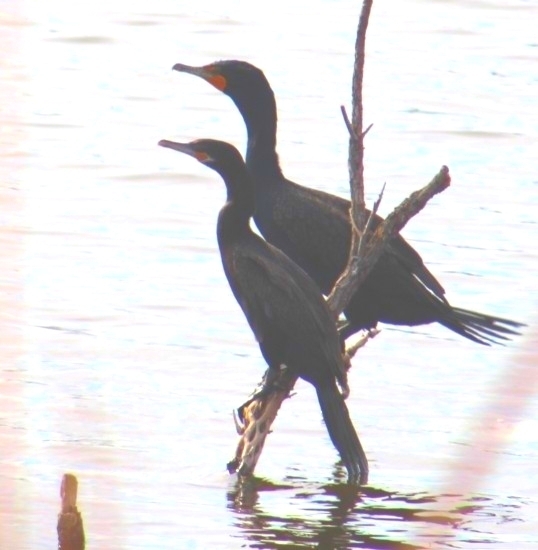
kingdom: Animalia
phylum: Chordata
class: Aves
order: Suliformes
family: Phalacrocoracidae
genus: Phalacrocorax
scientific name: Phalacrocorax brasilianus
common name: Neotropic cormorant
